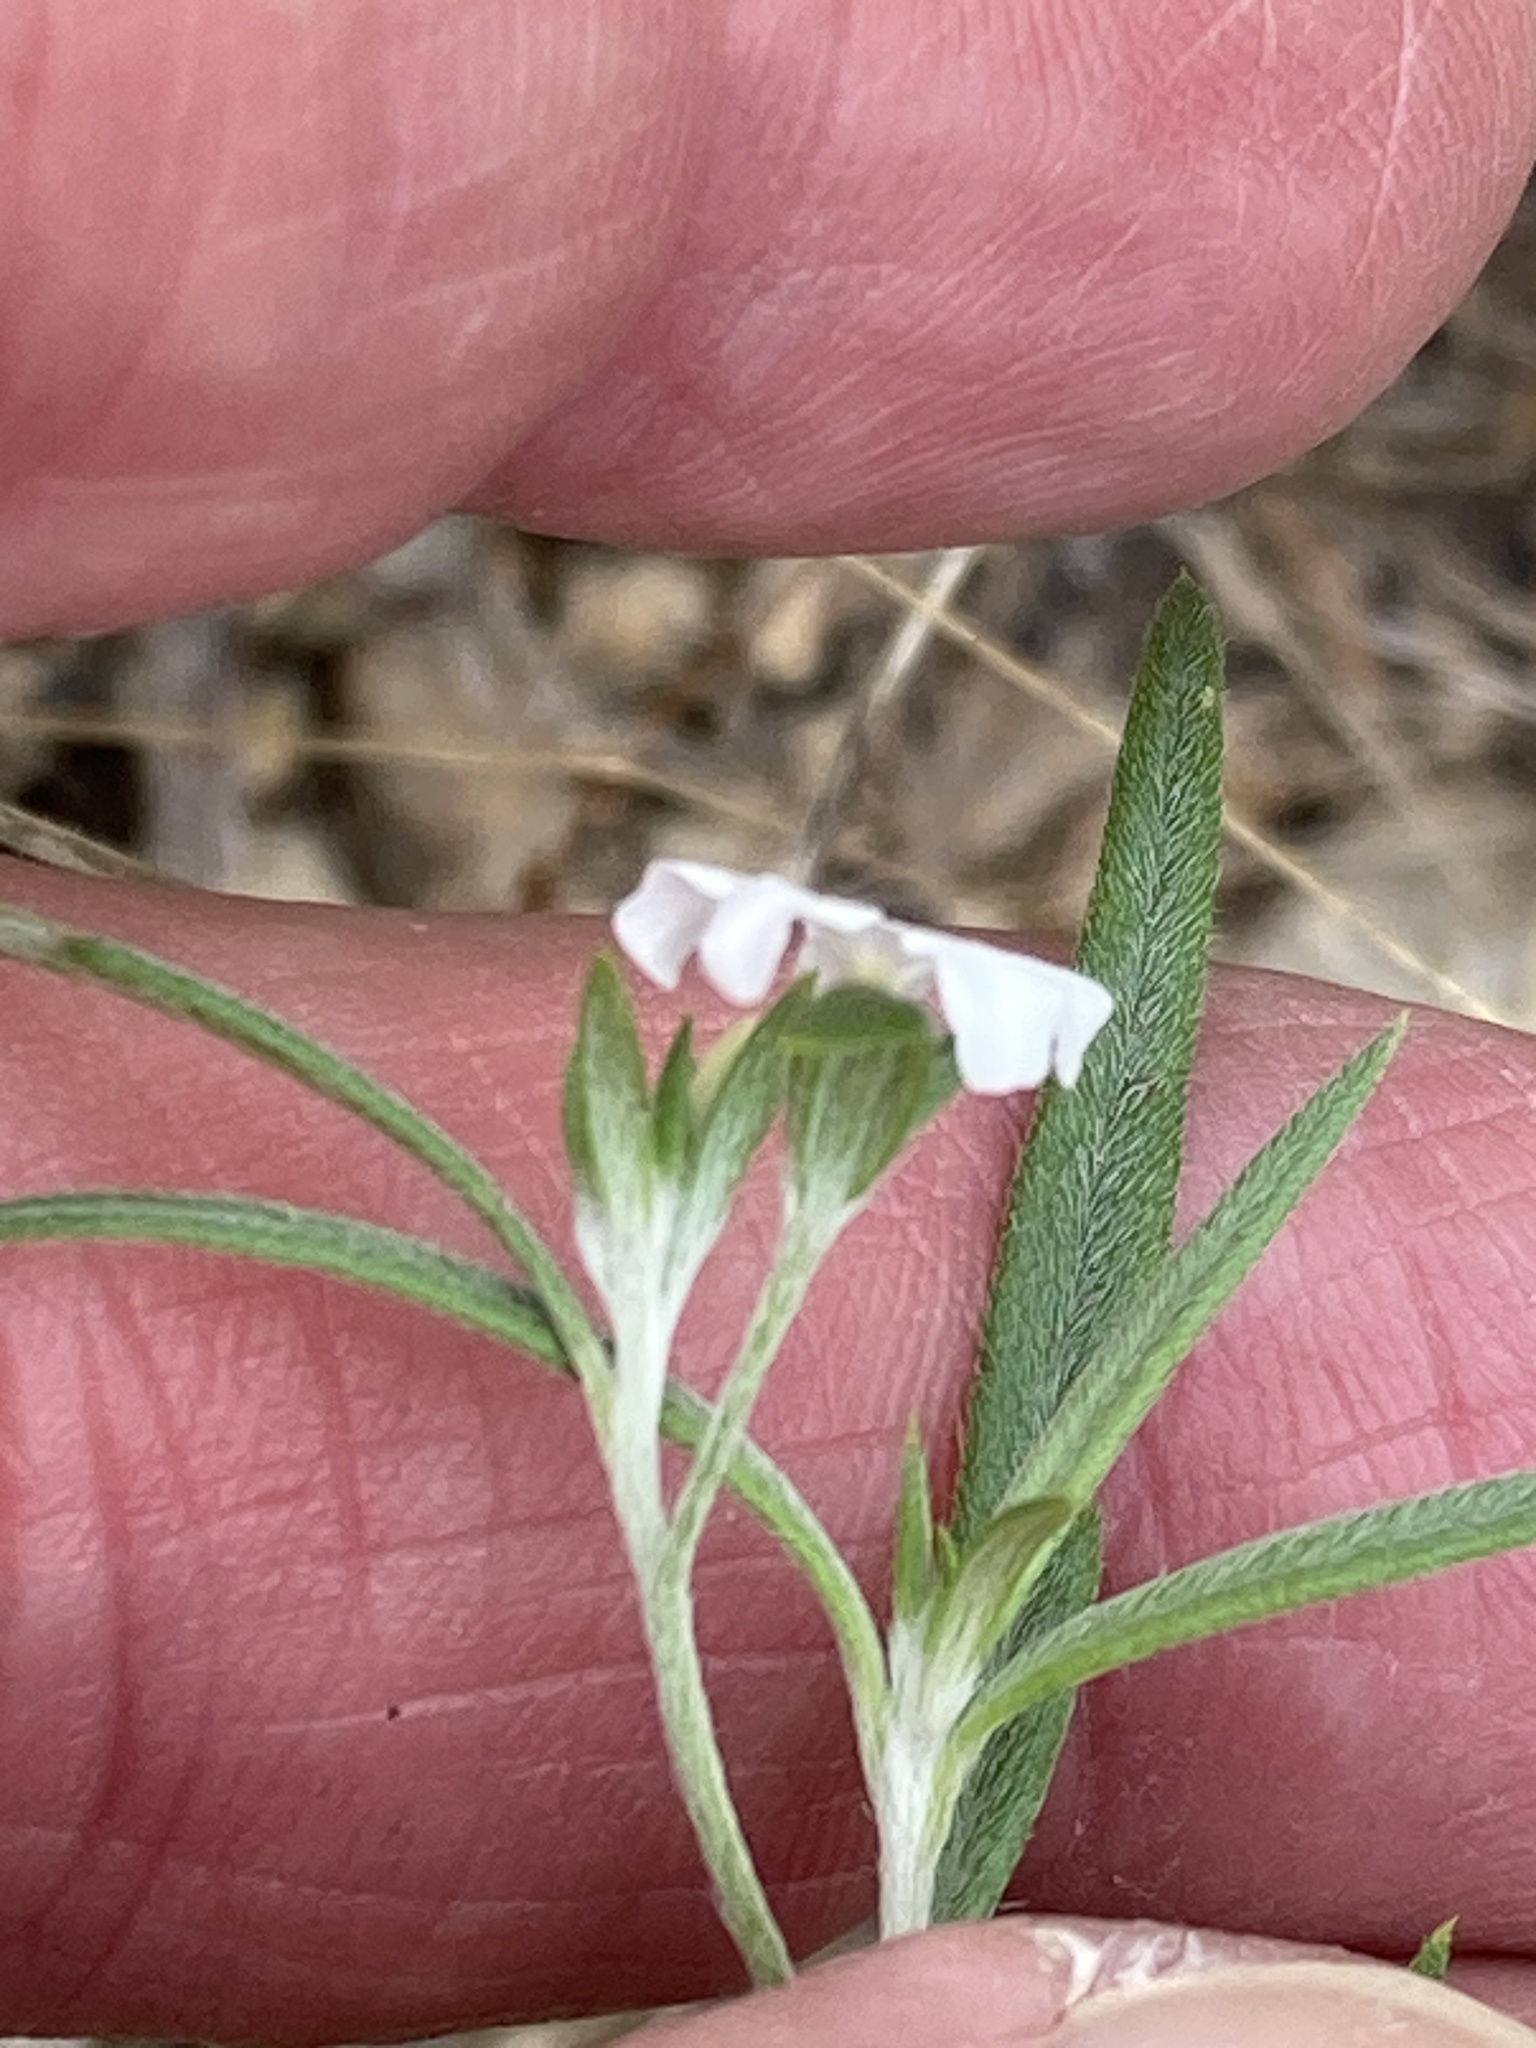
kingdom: Plantae
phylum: Tracheophyta
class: Magnoliopsida
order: Boraginales
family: Heliotropiaceae
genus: Euploca
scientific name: Euploca tenella
